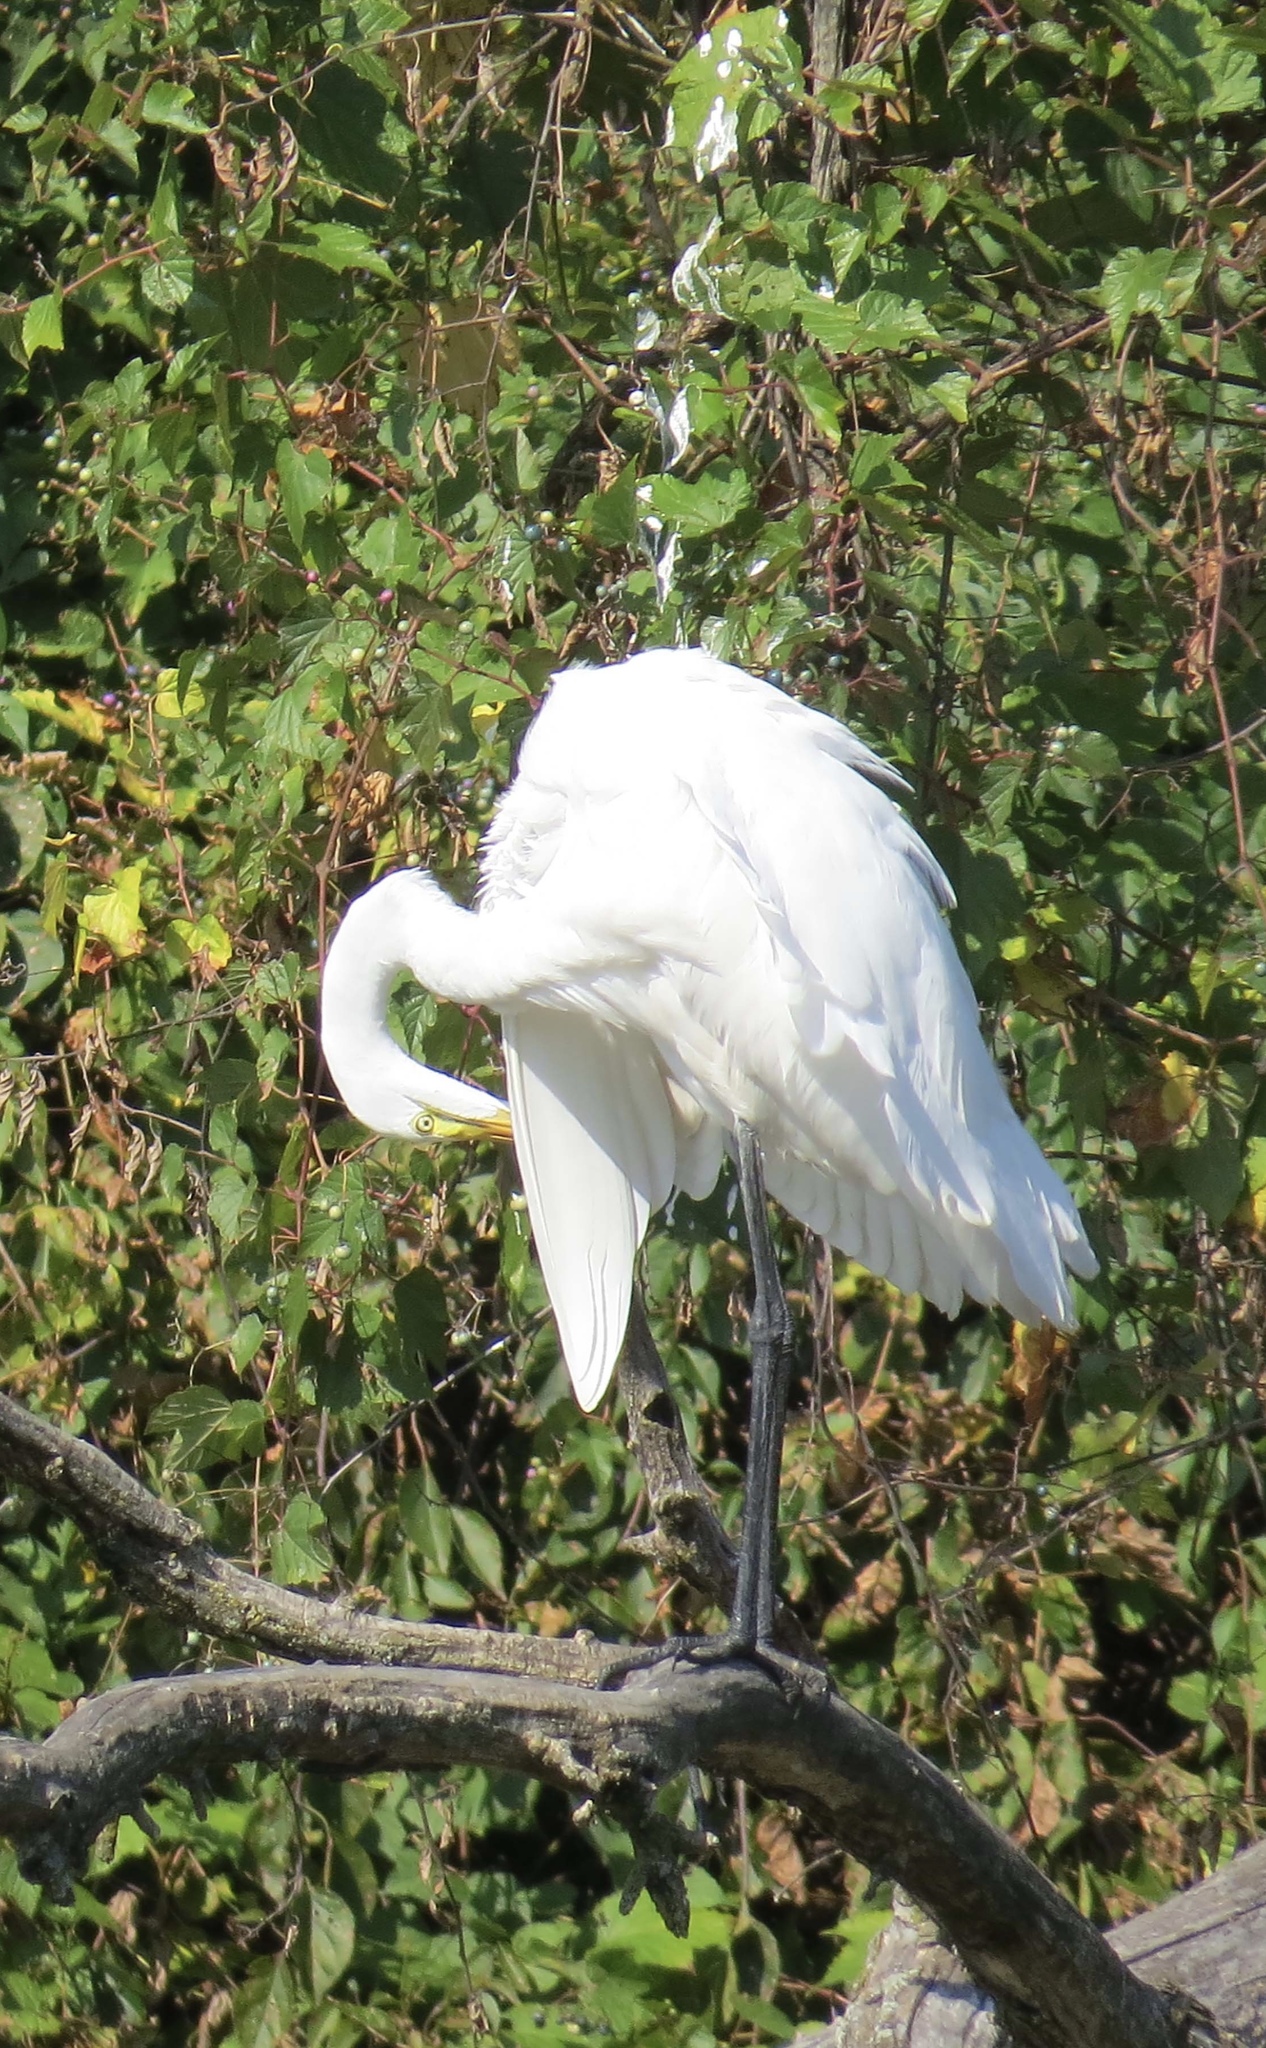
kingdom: Animalia
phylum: Chordata
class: Aves
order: Pelecaniformes
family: Ardeidae
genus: Ardea
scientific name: Ardea alba
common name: Great egret
